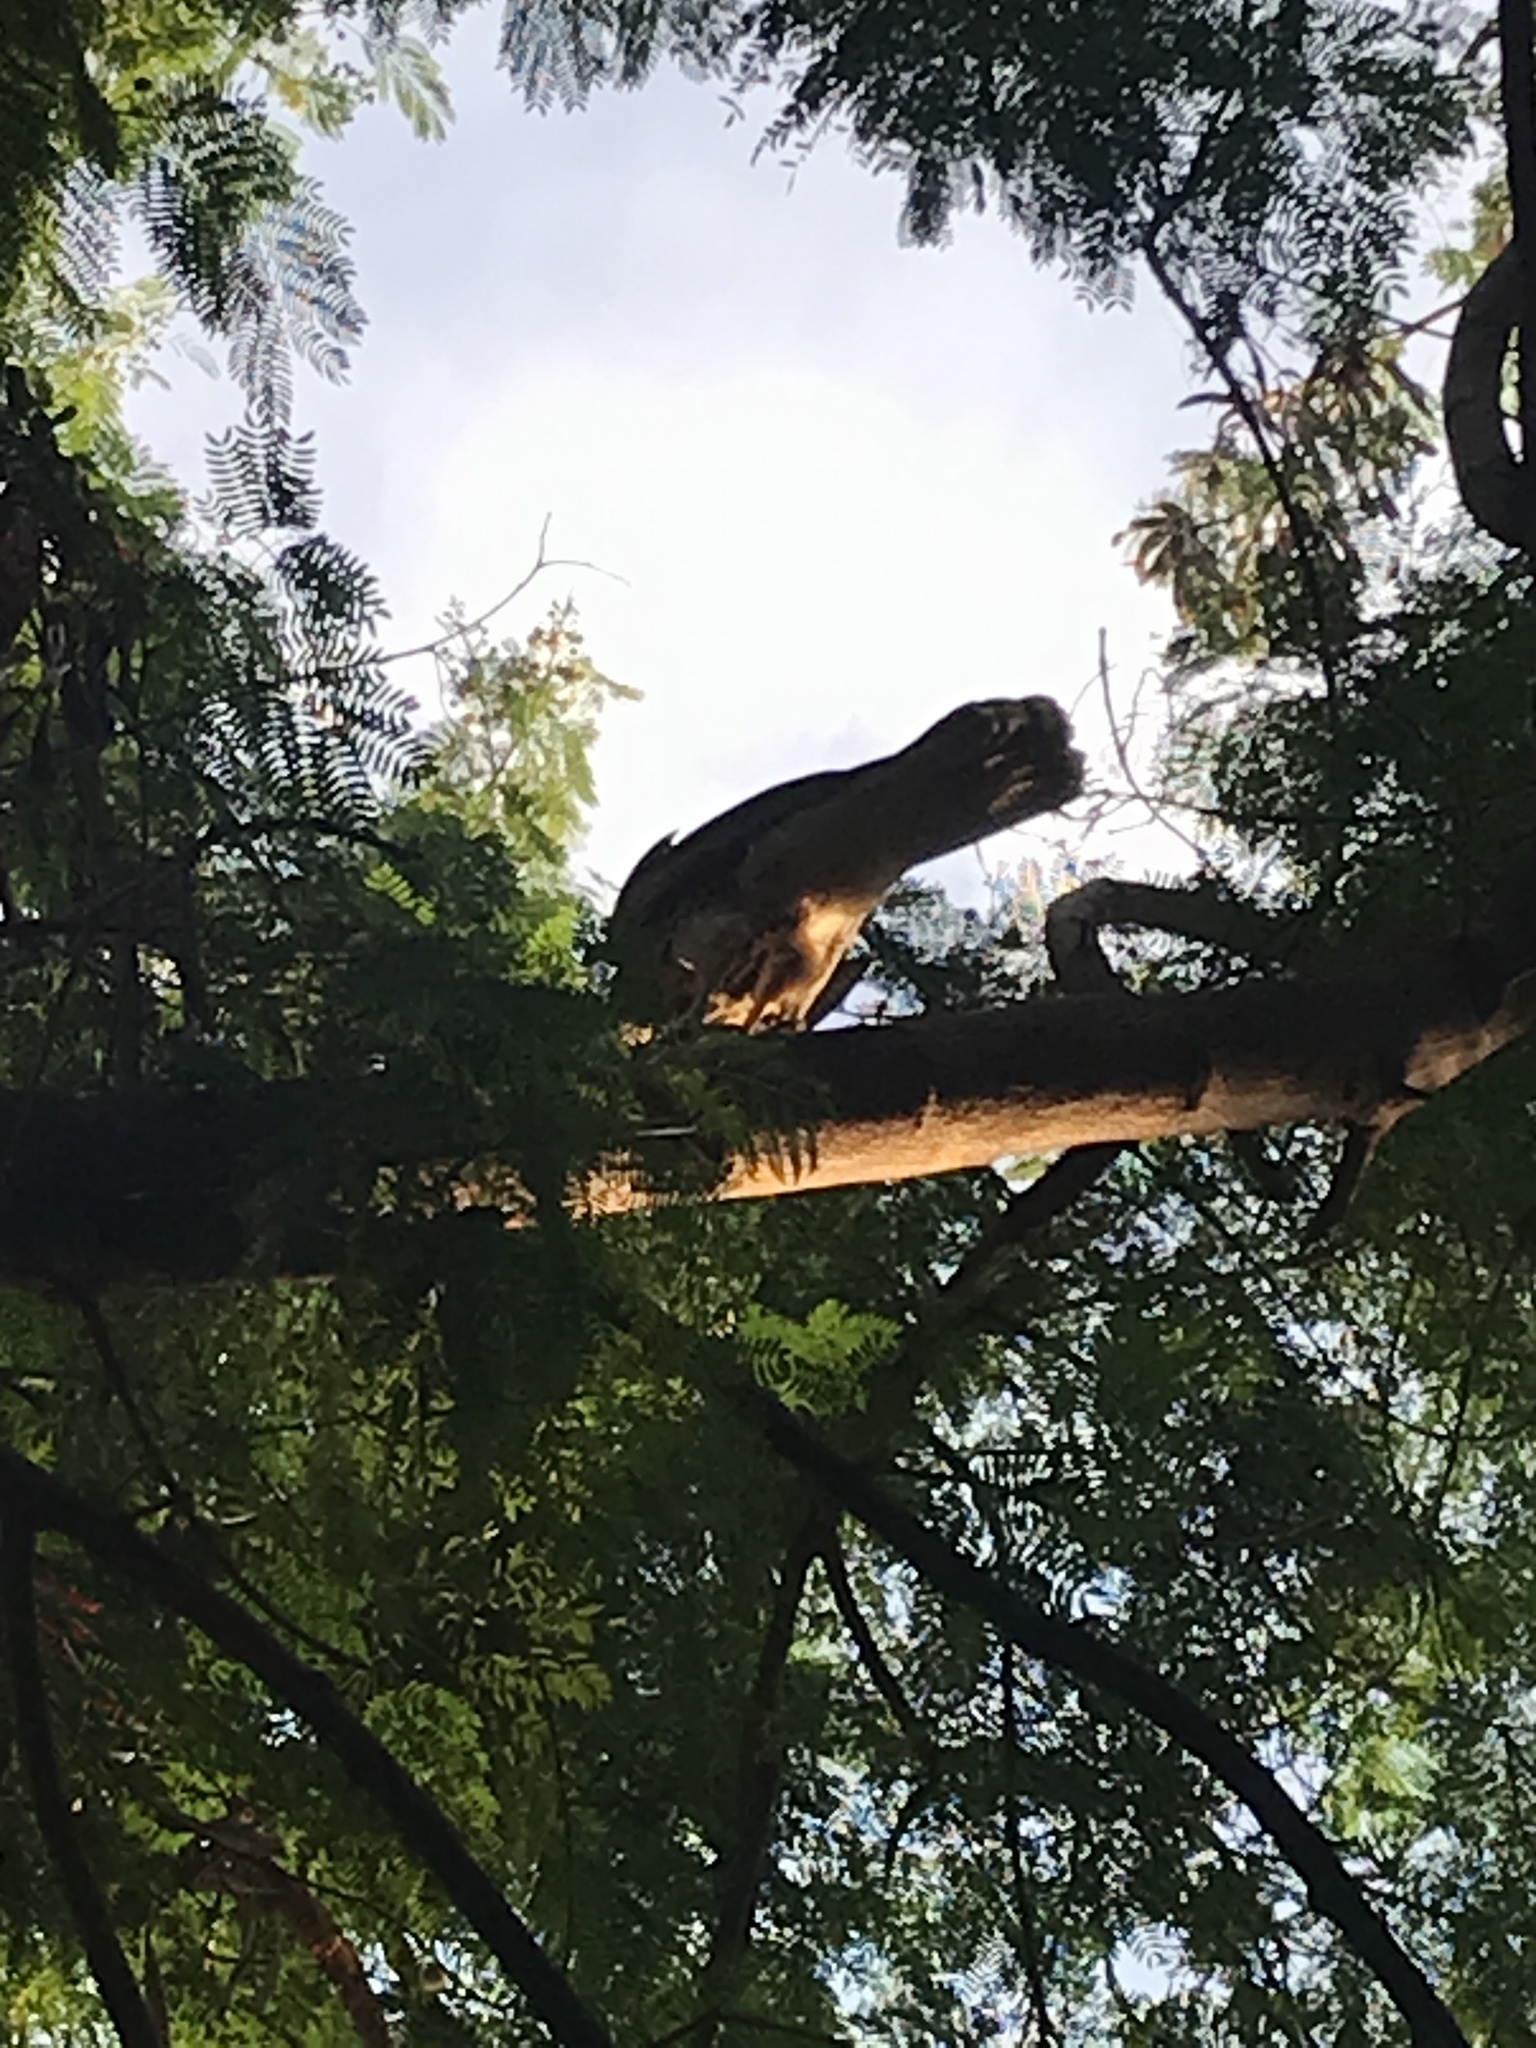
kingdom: Animalia
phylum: Chordata
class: Aves
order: Accipitriformes
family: Accipitridae
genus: Parabuteo
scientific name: Parabuteo unicinctus
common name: Harris's hawk
